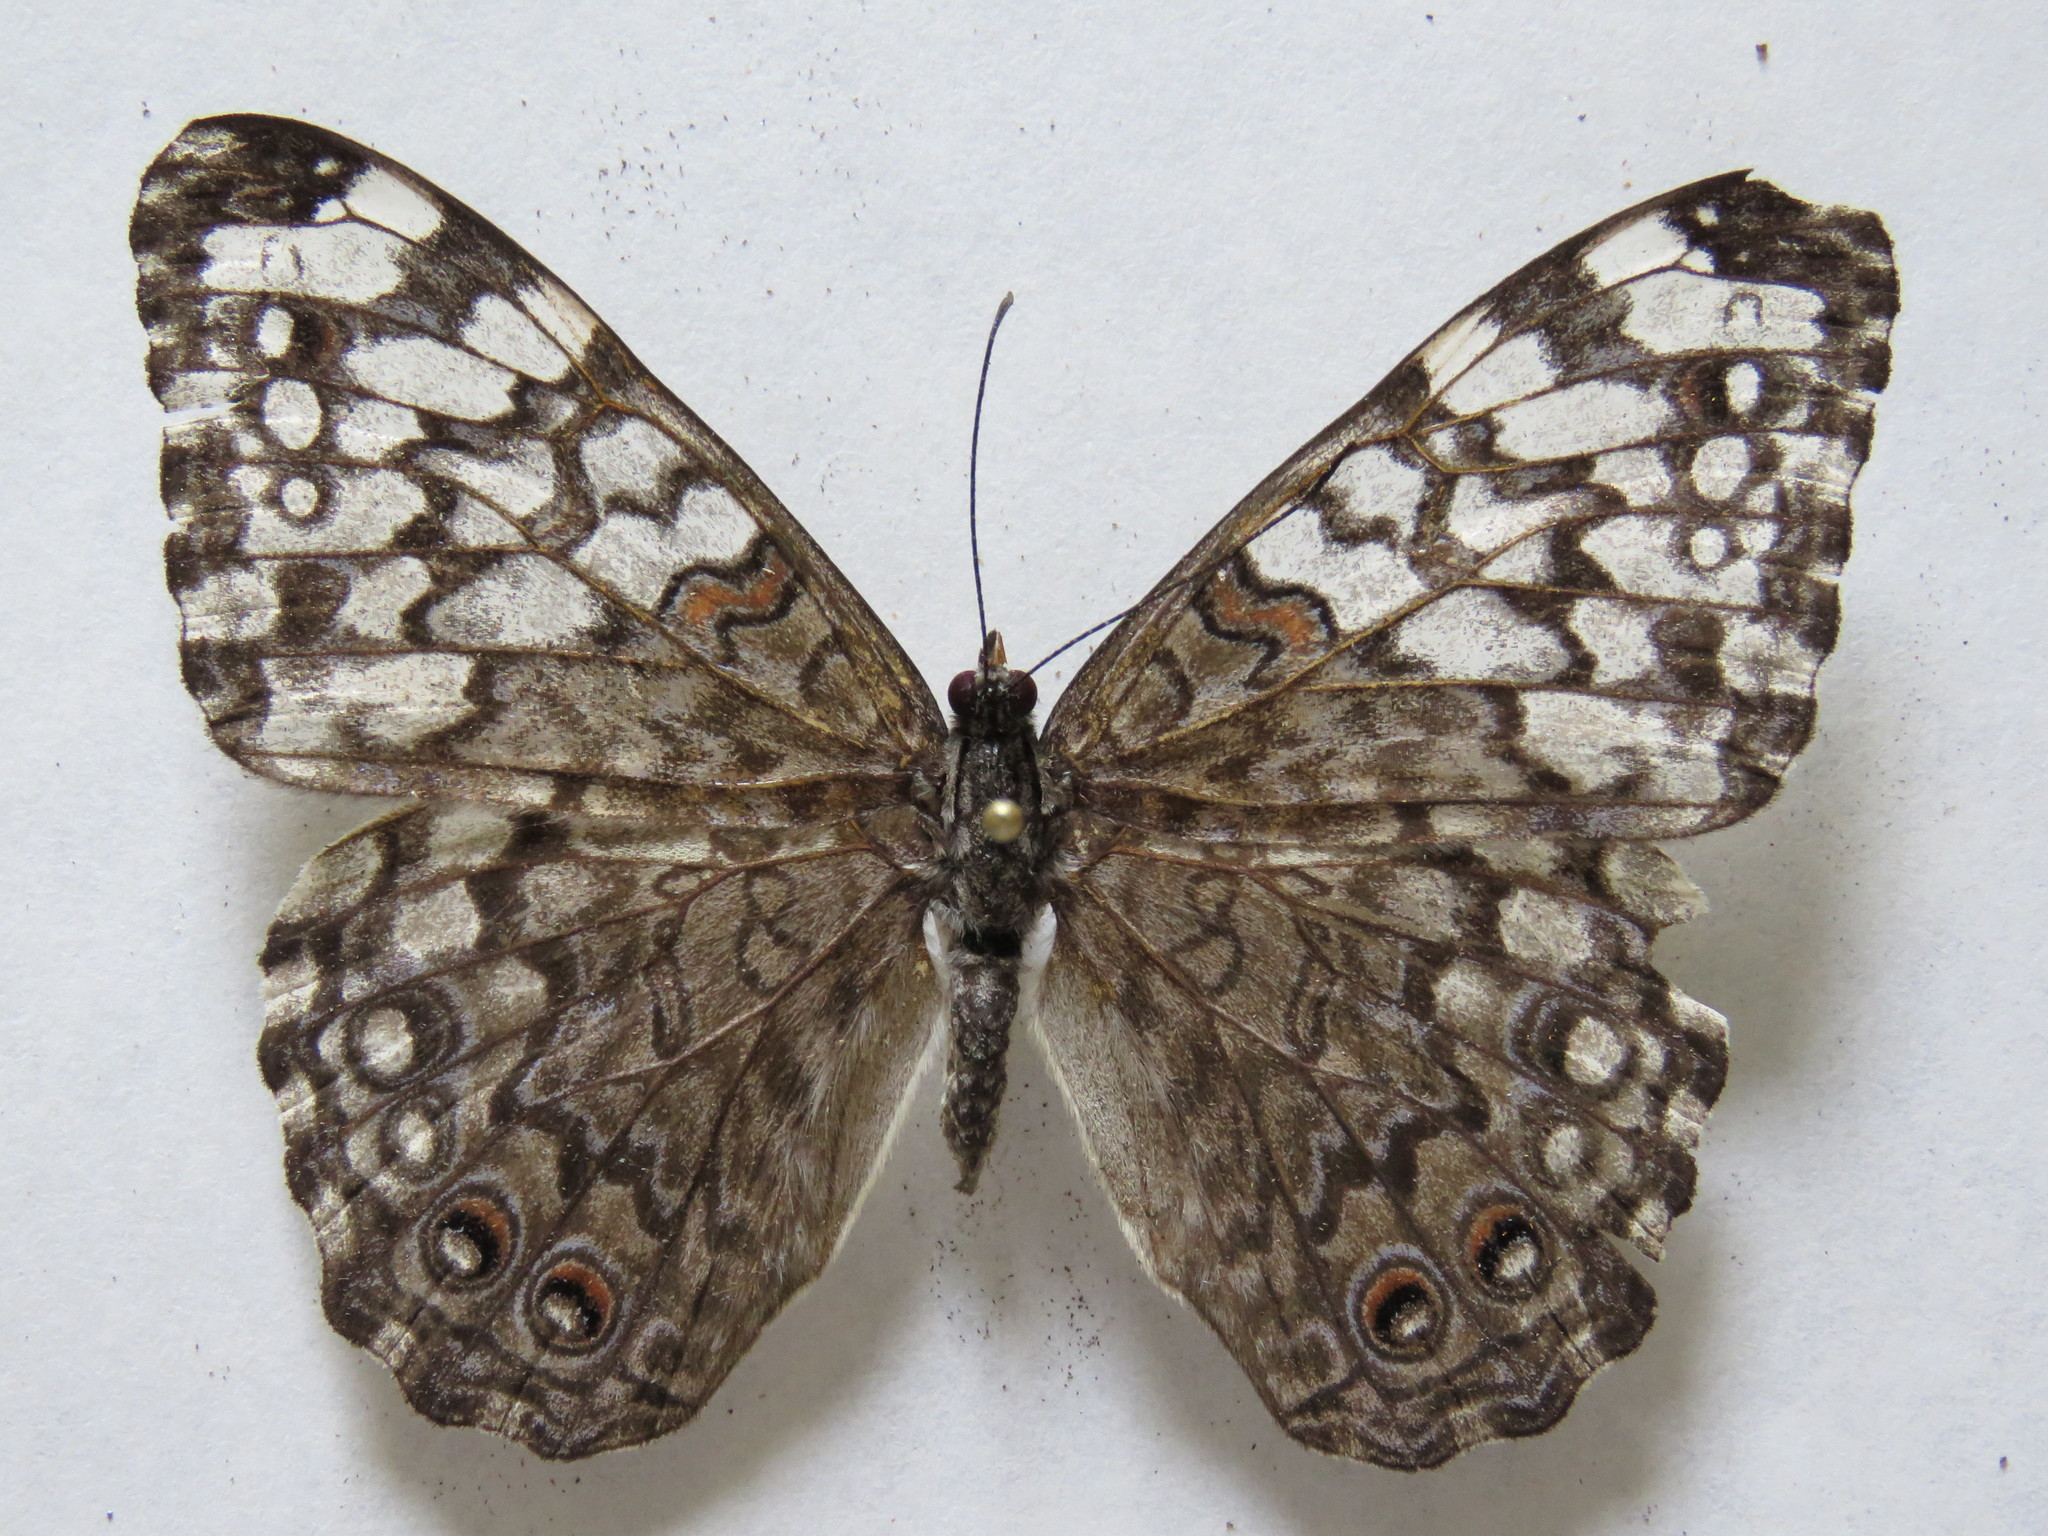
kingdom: Animalia
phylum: Arthropoda
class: Insecta
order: Lepidoptera
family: Nymphalidae
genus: Hamadryas
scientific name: Hamadryas februa
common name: Gray cracker
